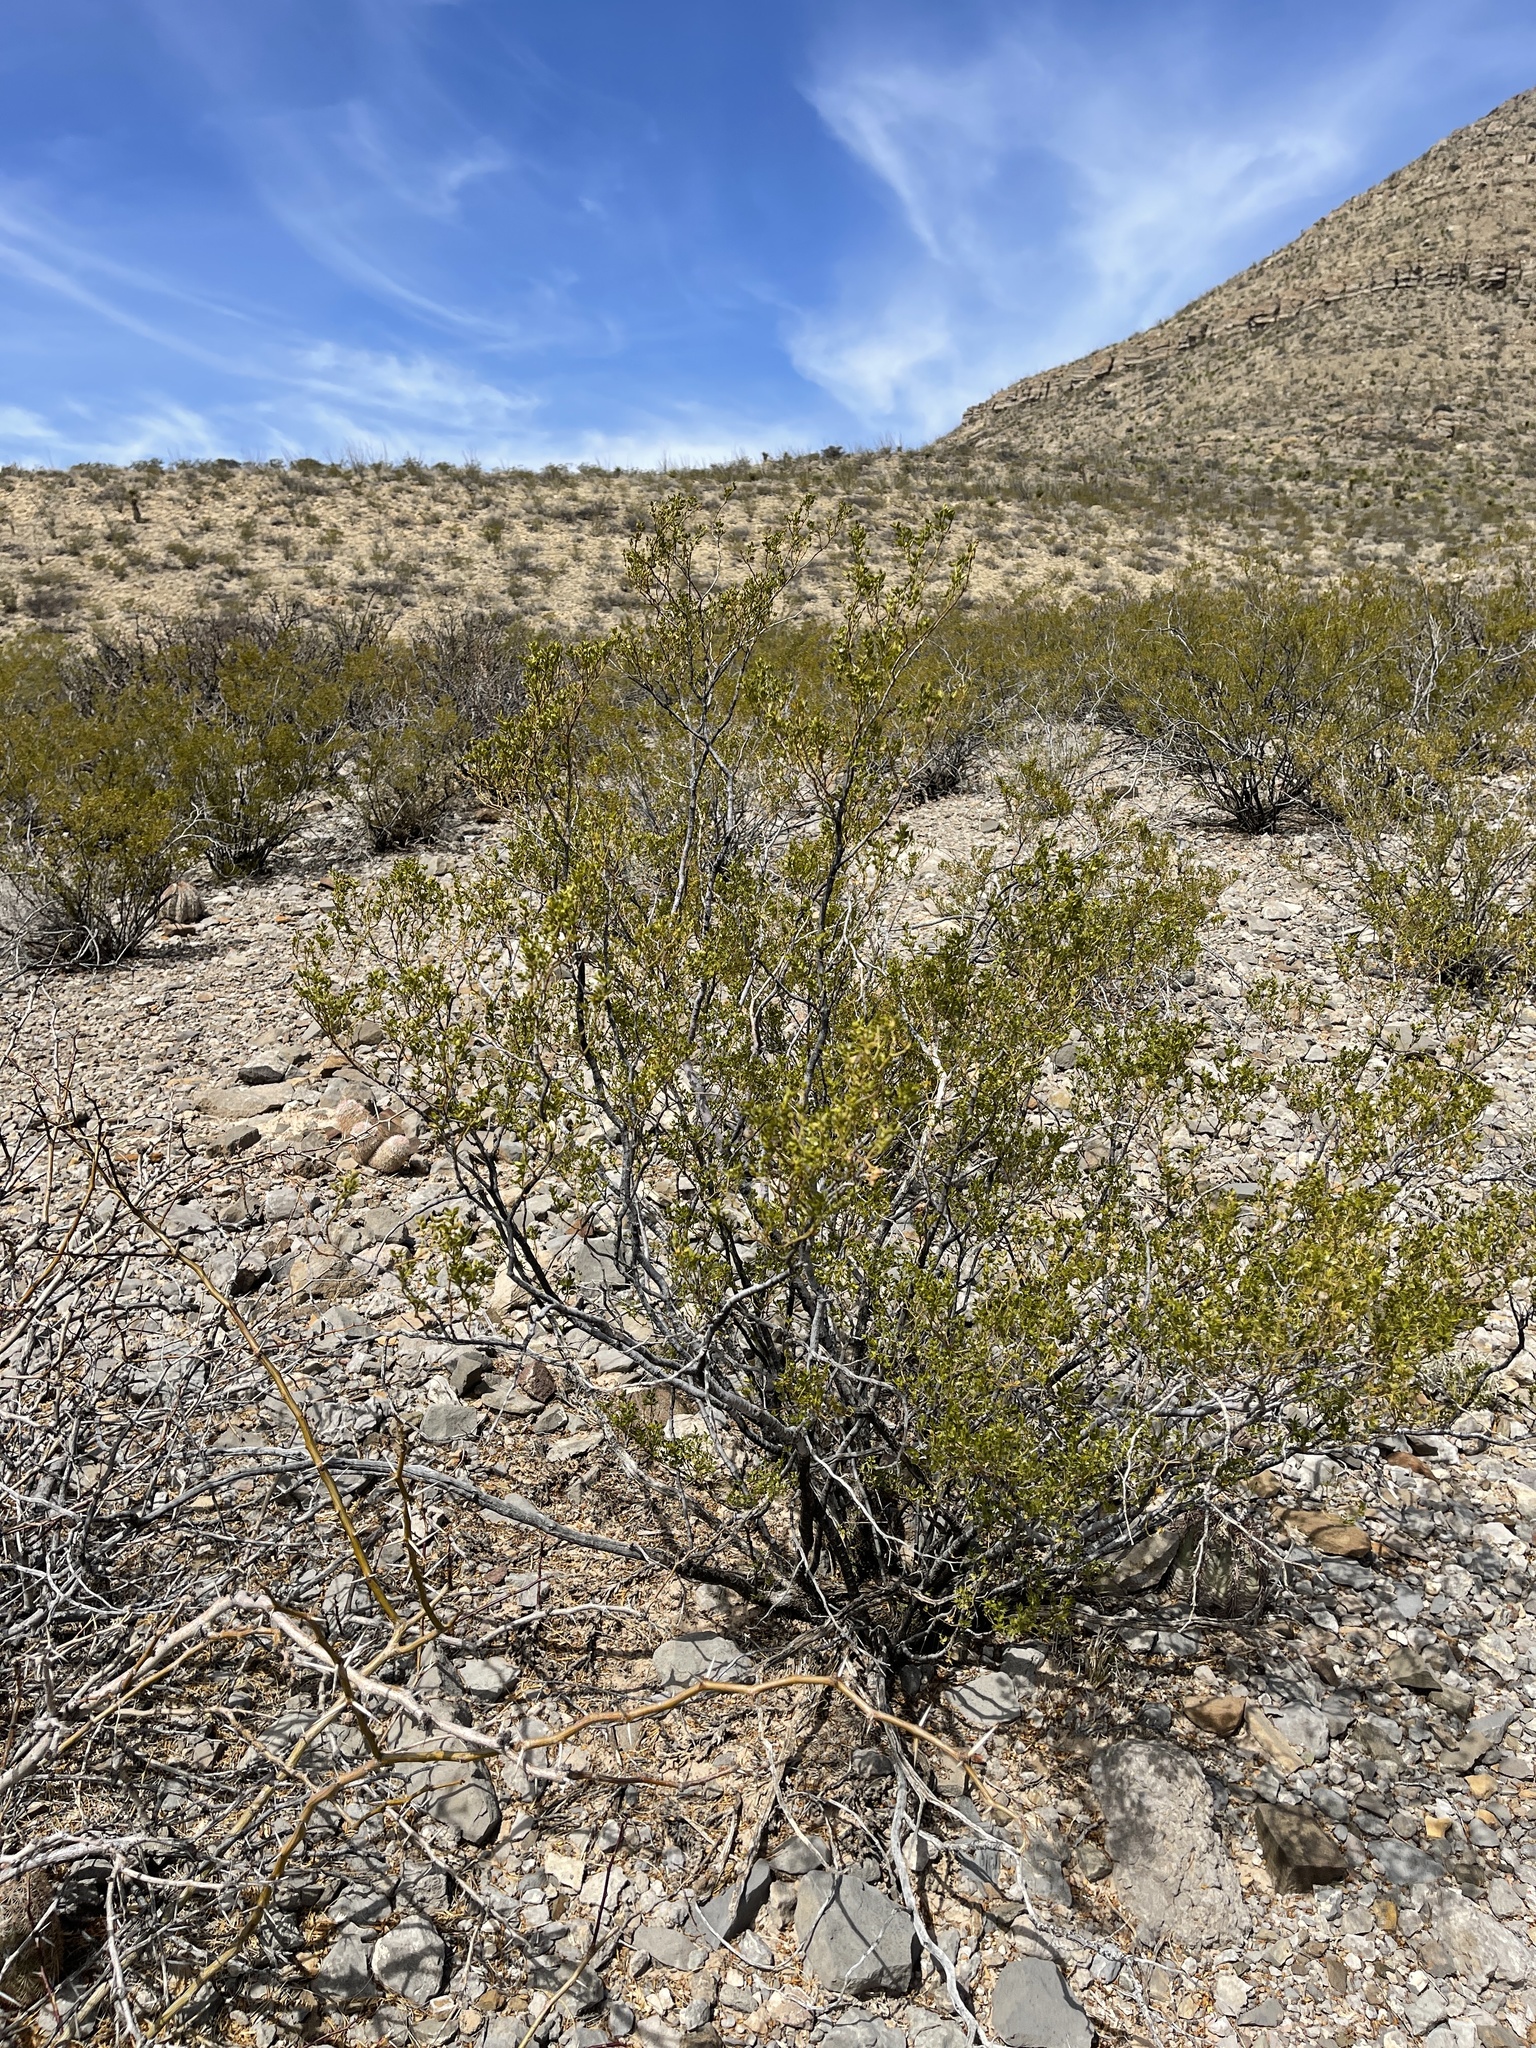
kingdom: Plantae
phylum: Tracheophyta
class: Magnoliopsida
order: Zygophyllales
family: Zygophyllaceae
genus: Larrea
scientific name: Larrea tridentata
